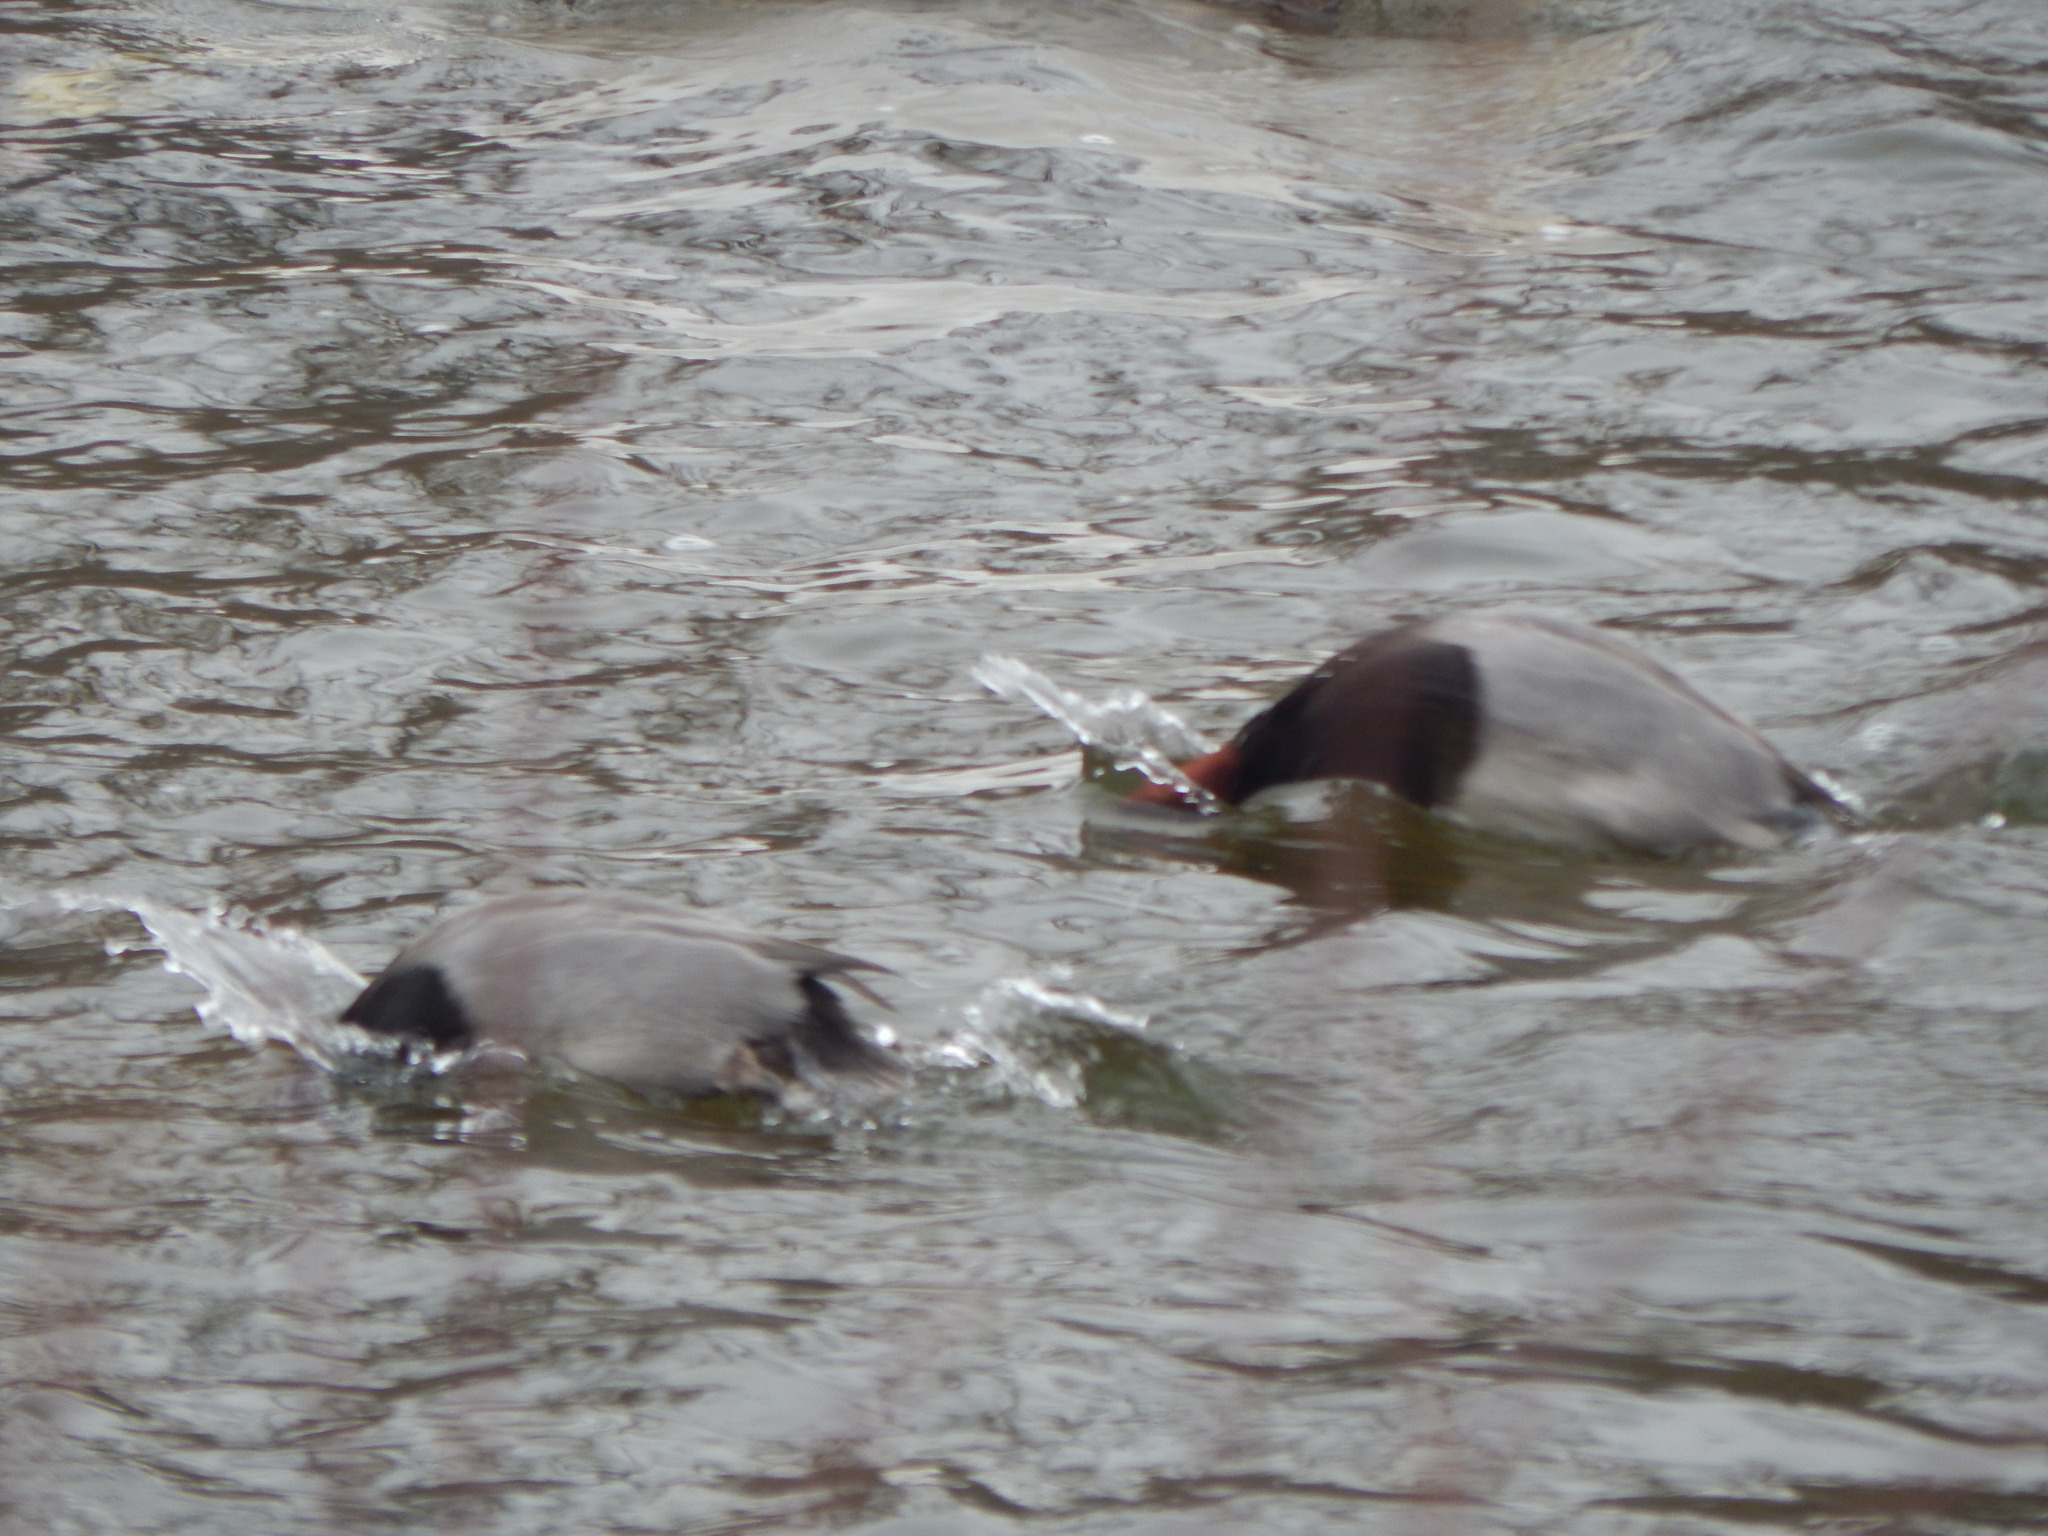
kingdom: Animalia
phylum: Chordata
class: Aves
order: Anseriformes
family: Anatidae
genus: Aythya
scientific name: Aythya americana
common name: Redhead
